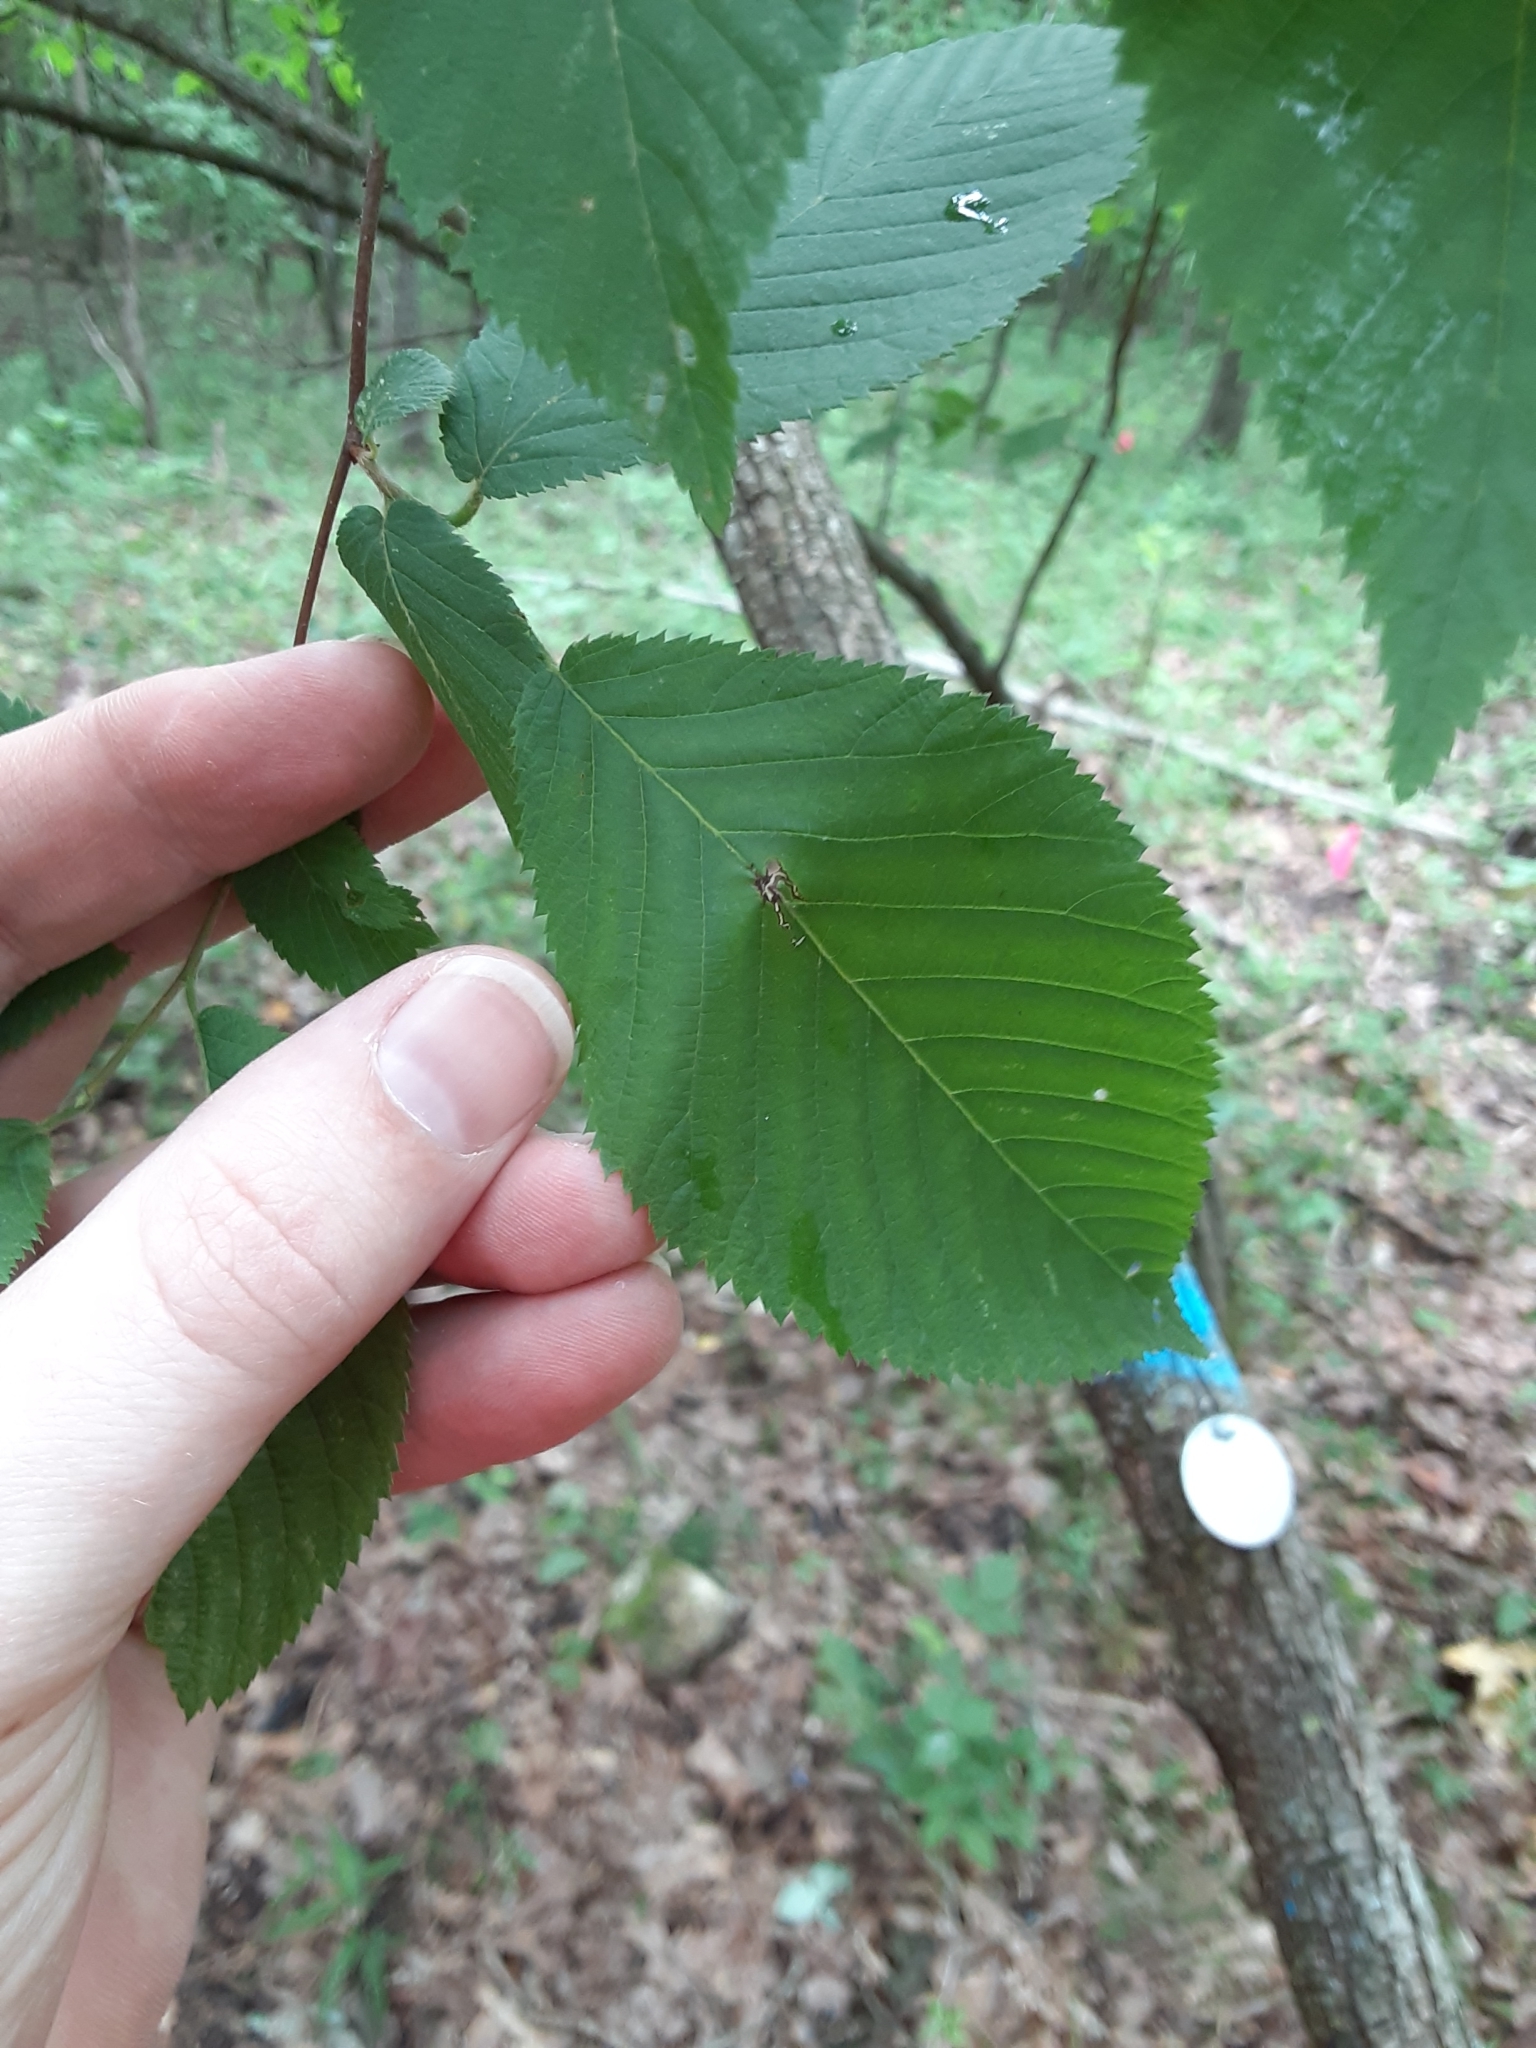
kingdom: Plantae
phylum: Tracheophyta
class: Magnoliopsida
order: Fagales
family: Betulaceae
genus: Ostrya
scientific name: Ostrya virginiana
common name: Ironwood
